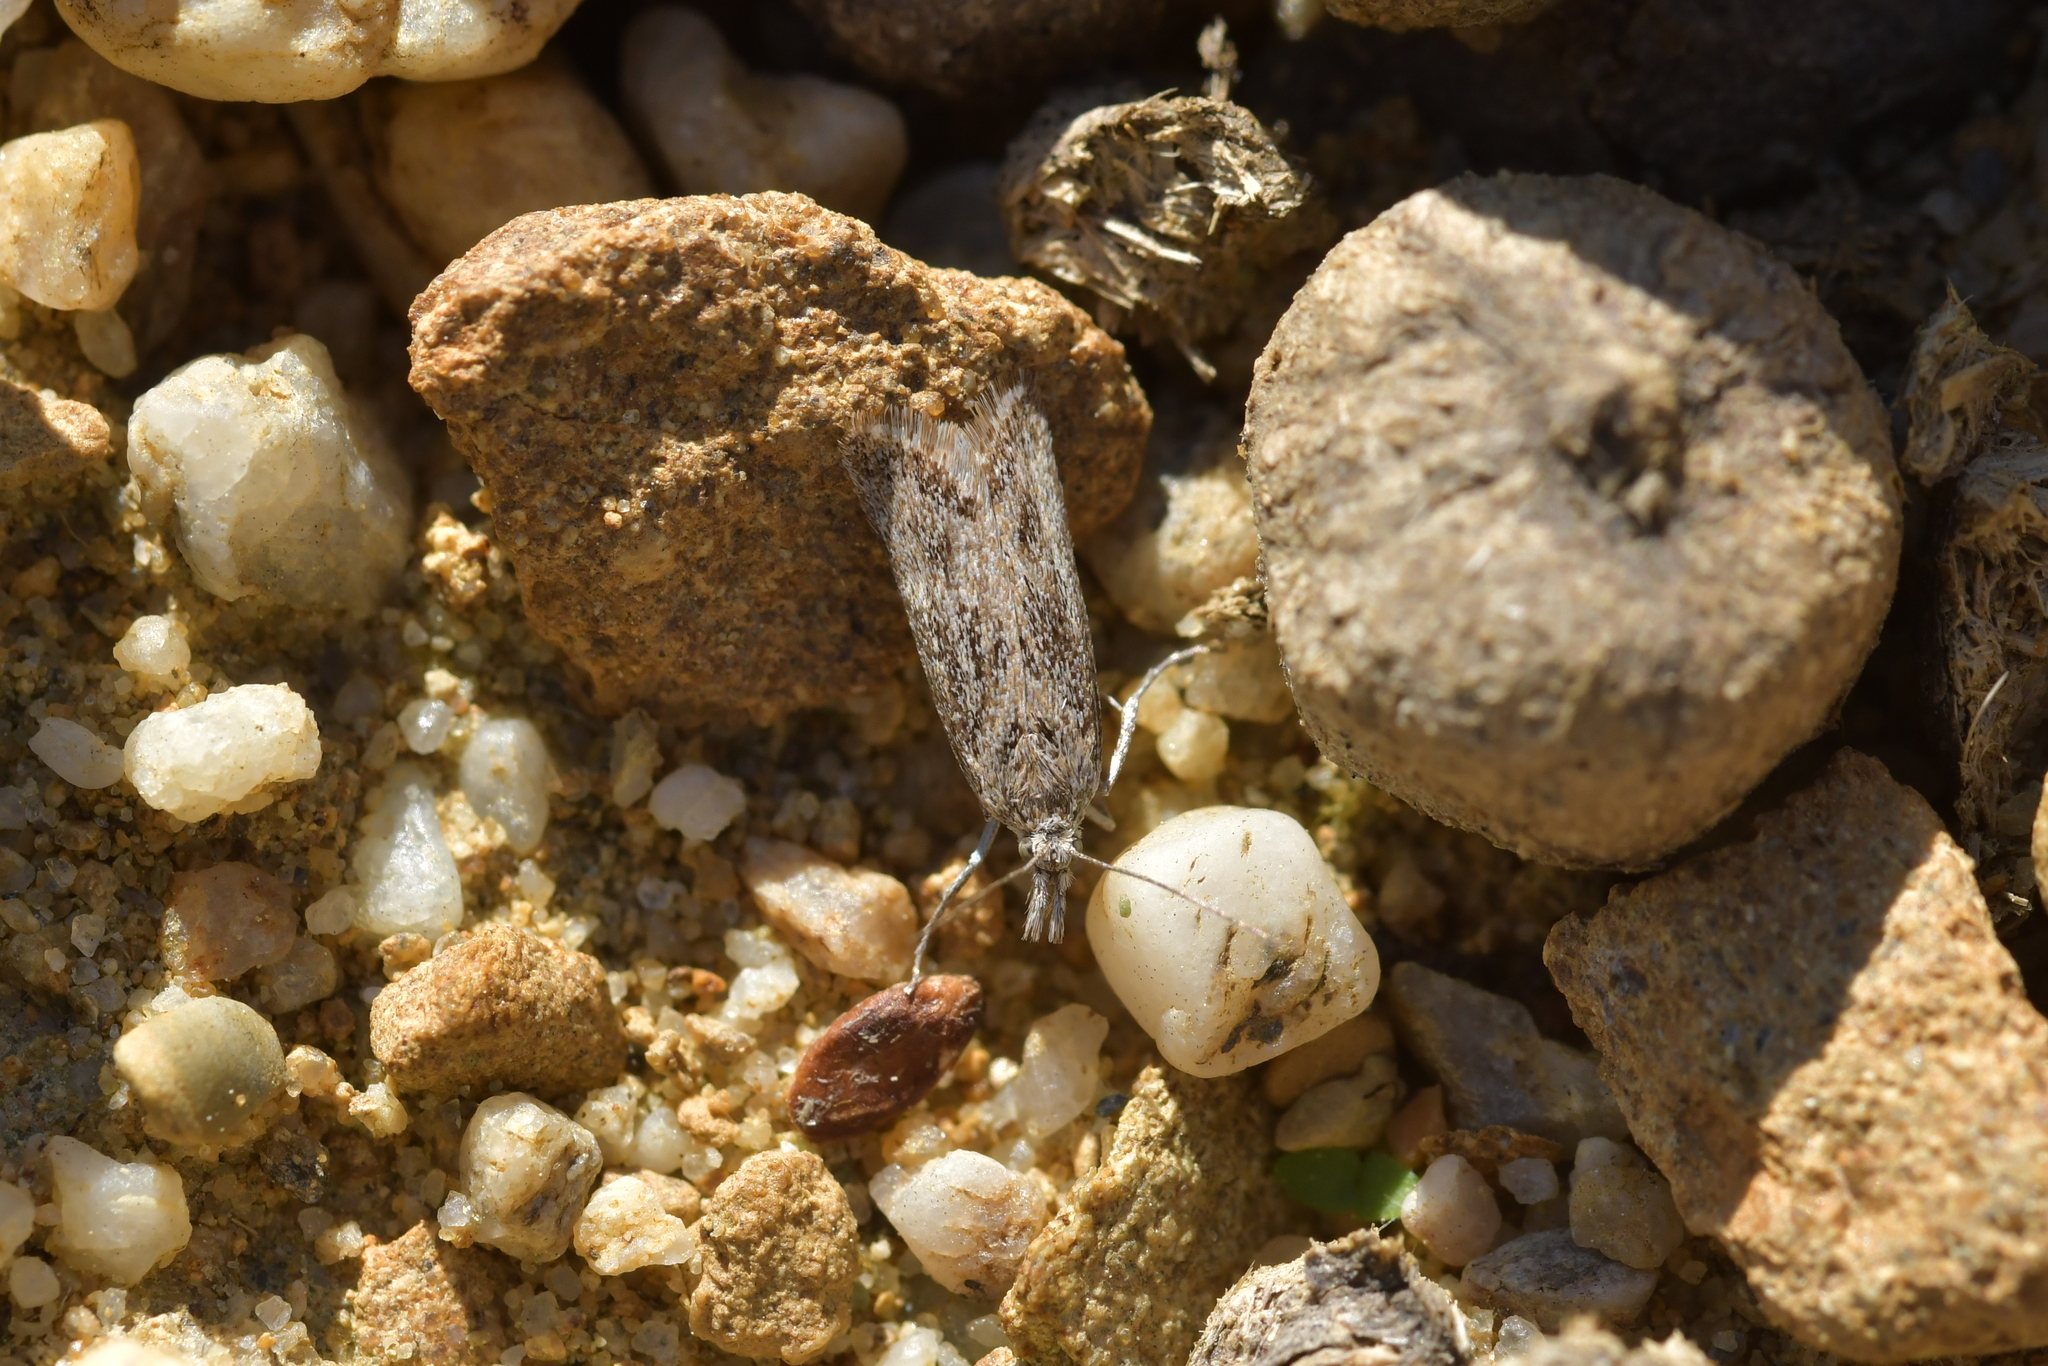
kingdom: Animalia
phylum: Arthropoda
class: Insecta
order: Lepidoptera
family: Crambidae
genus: Orocrambus
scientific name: Orocrambus corruptus
